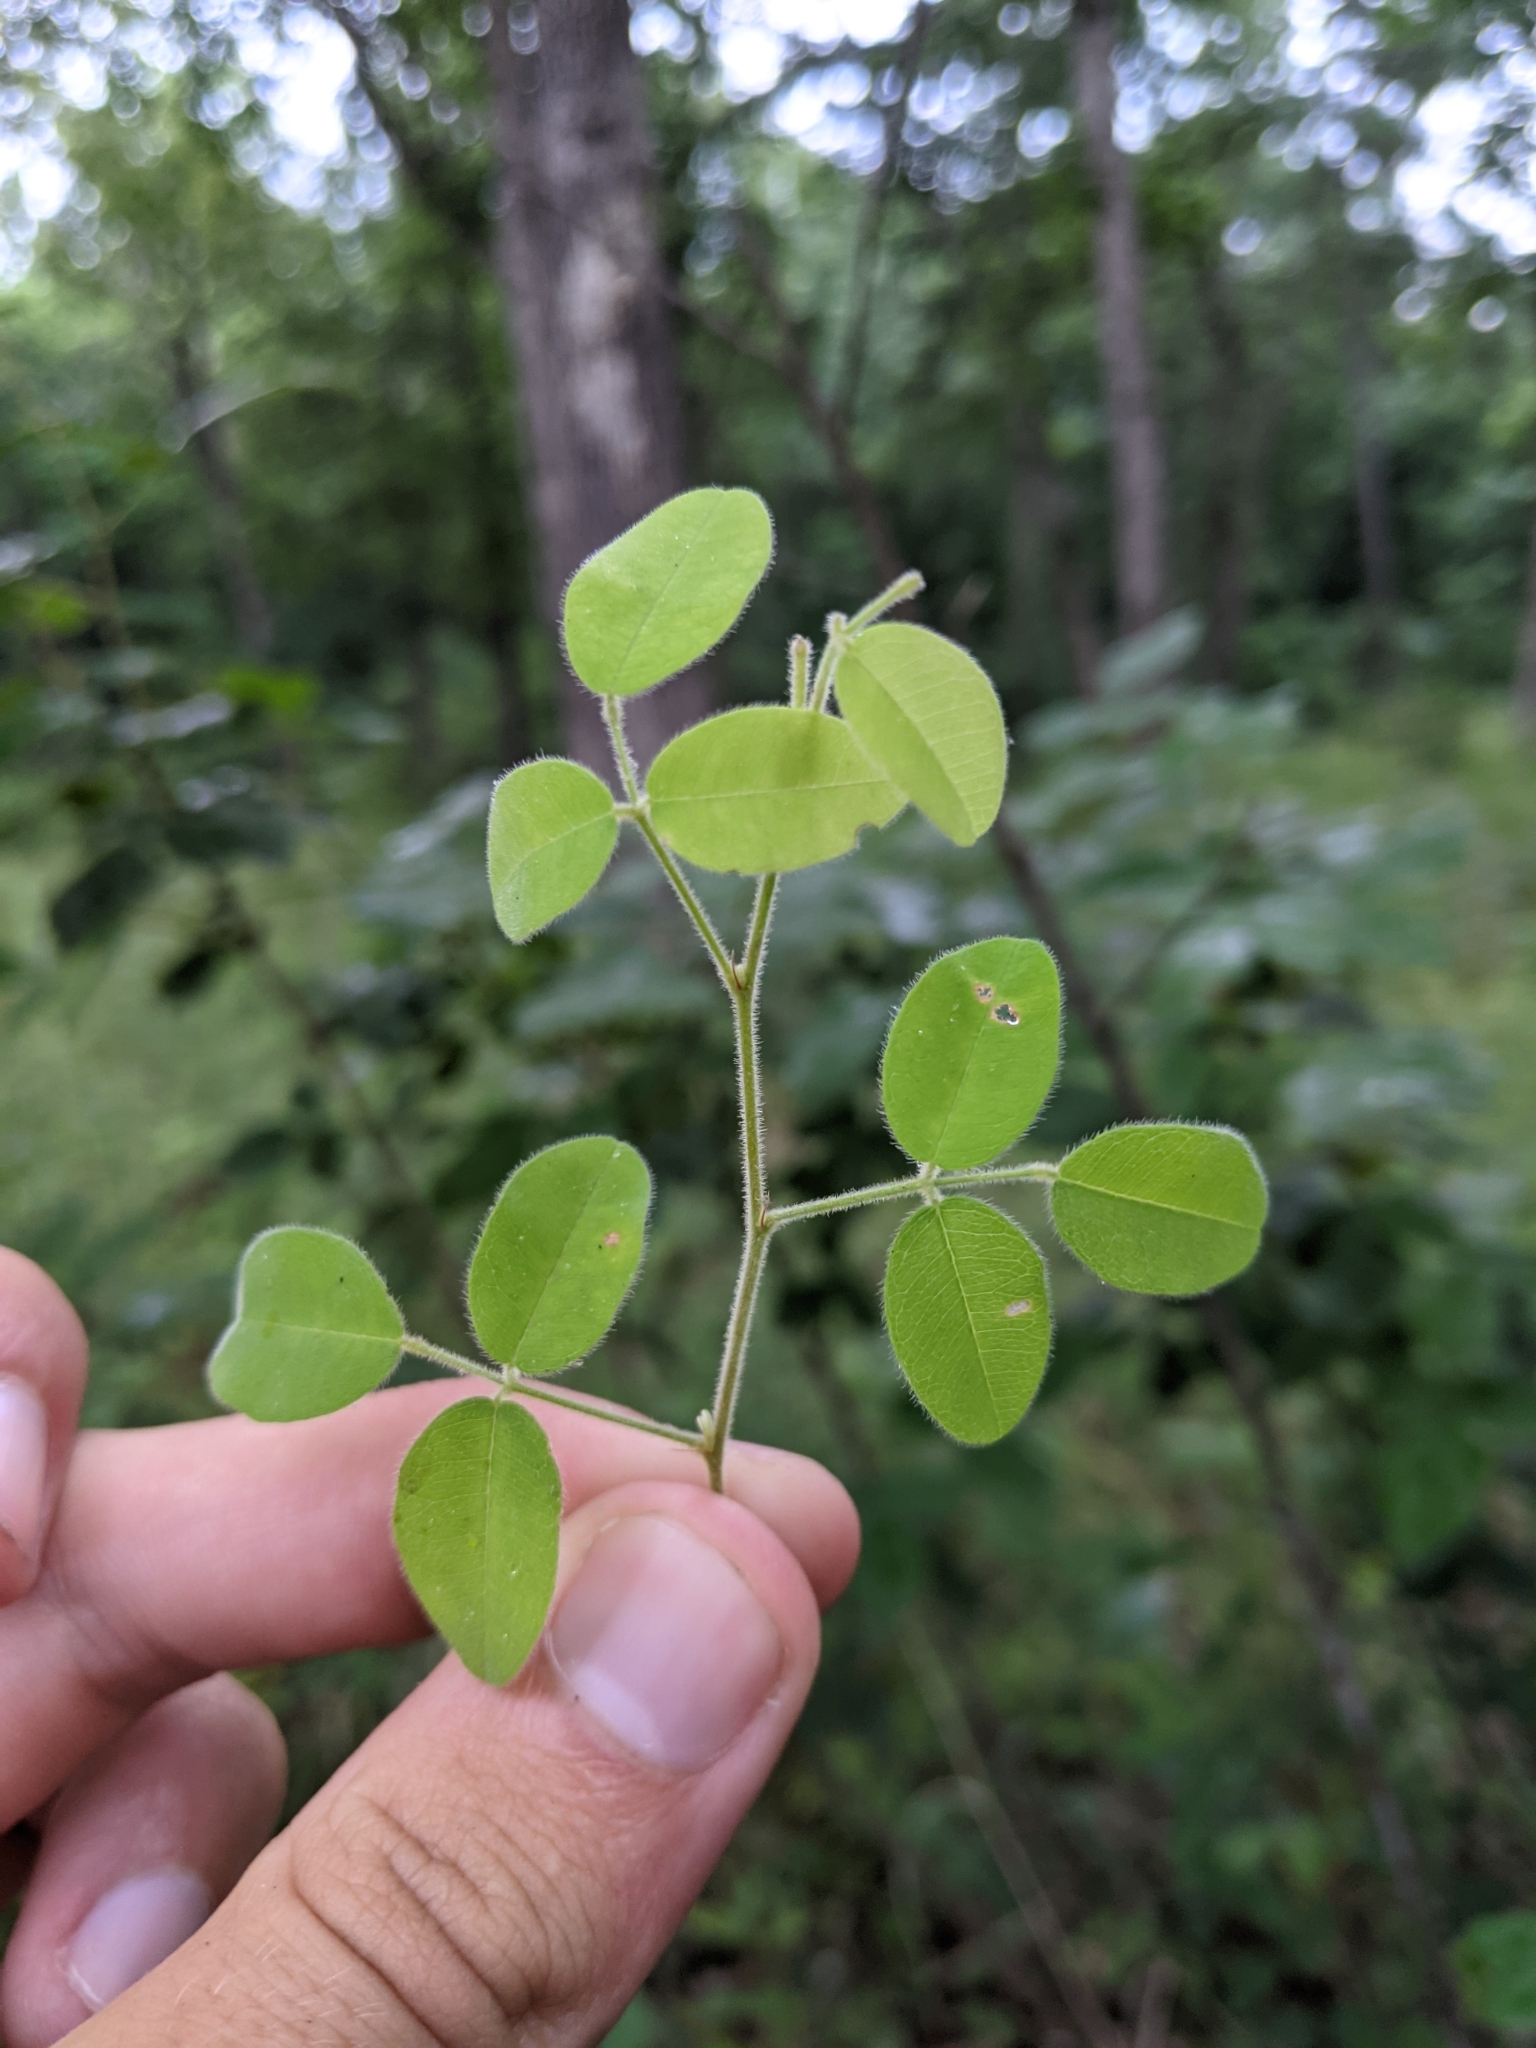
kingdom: Plantae
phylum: Tracheophyta
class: Magnoliopsida
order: Fabales
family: Fabaceae
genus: Lespedeza
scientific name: Lespedeza procumbens
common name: Downy trailing bush-clover
